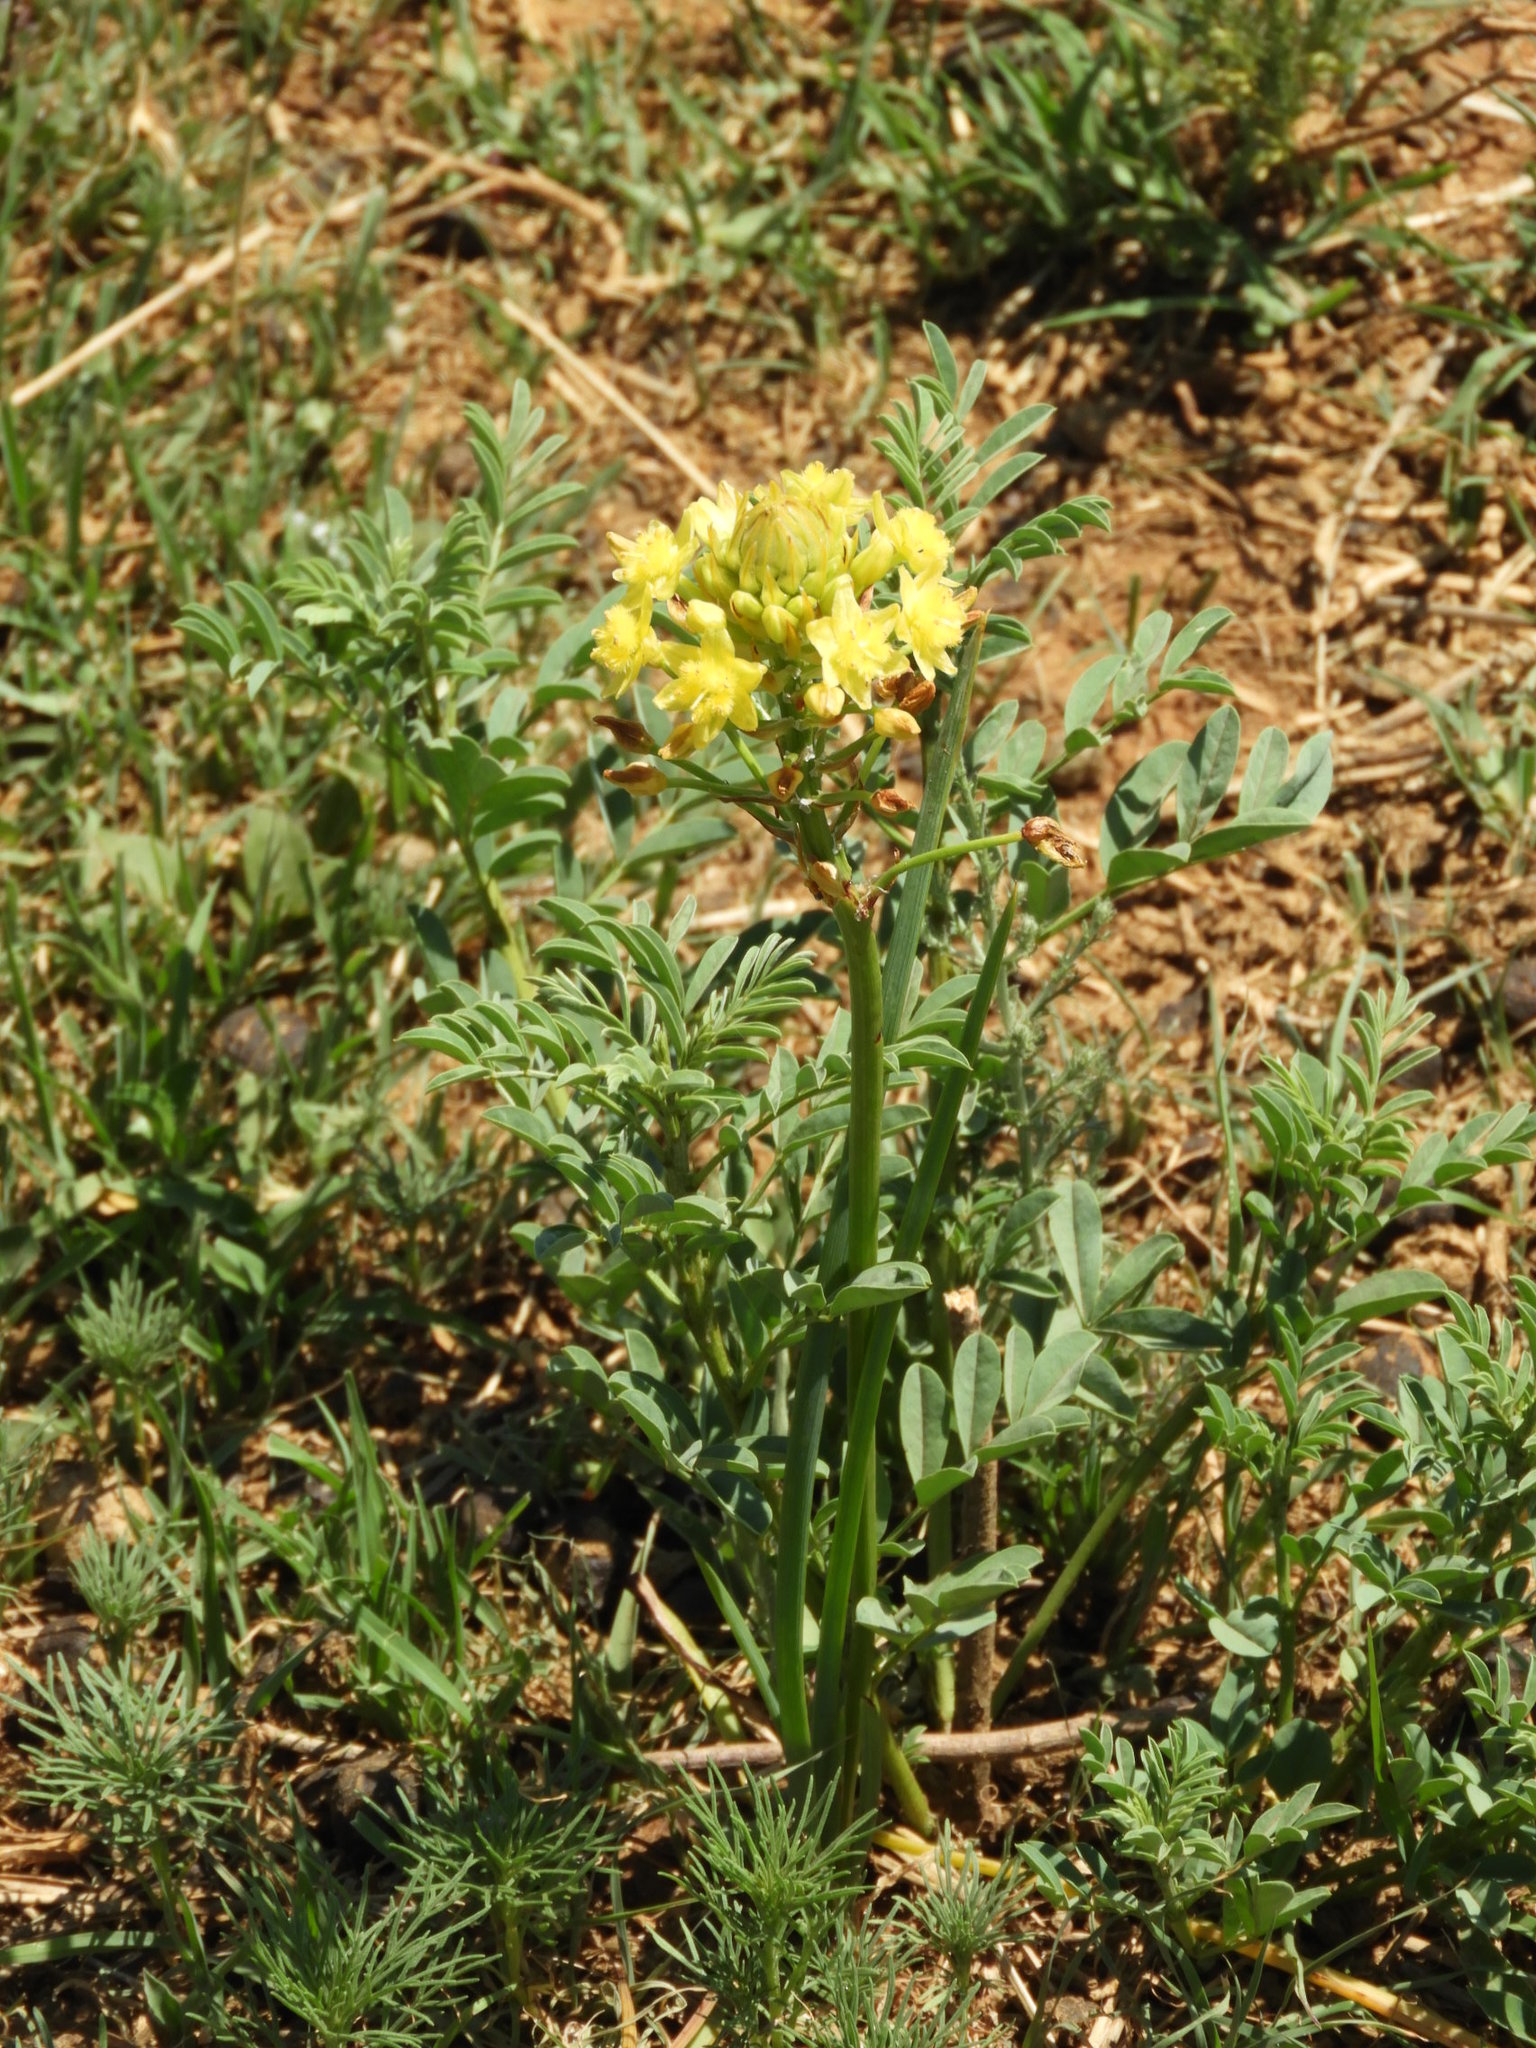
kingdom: Plantae
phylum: Tracheophyta
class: Liliopsida
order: Asparagales
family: Asphodelaceae
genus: Bulbine
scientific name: Bulbine capitata
